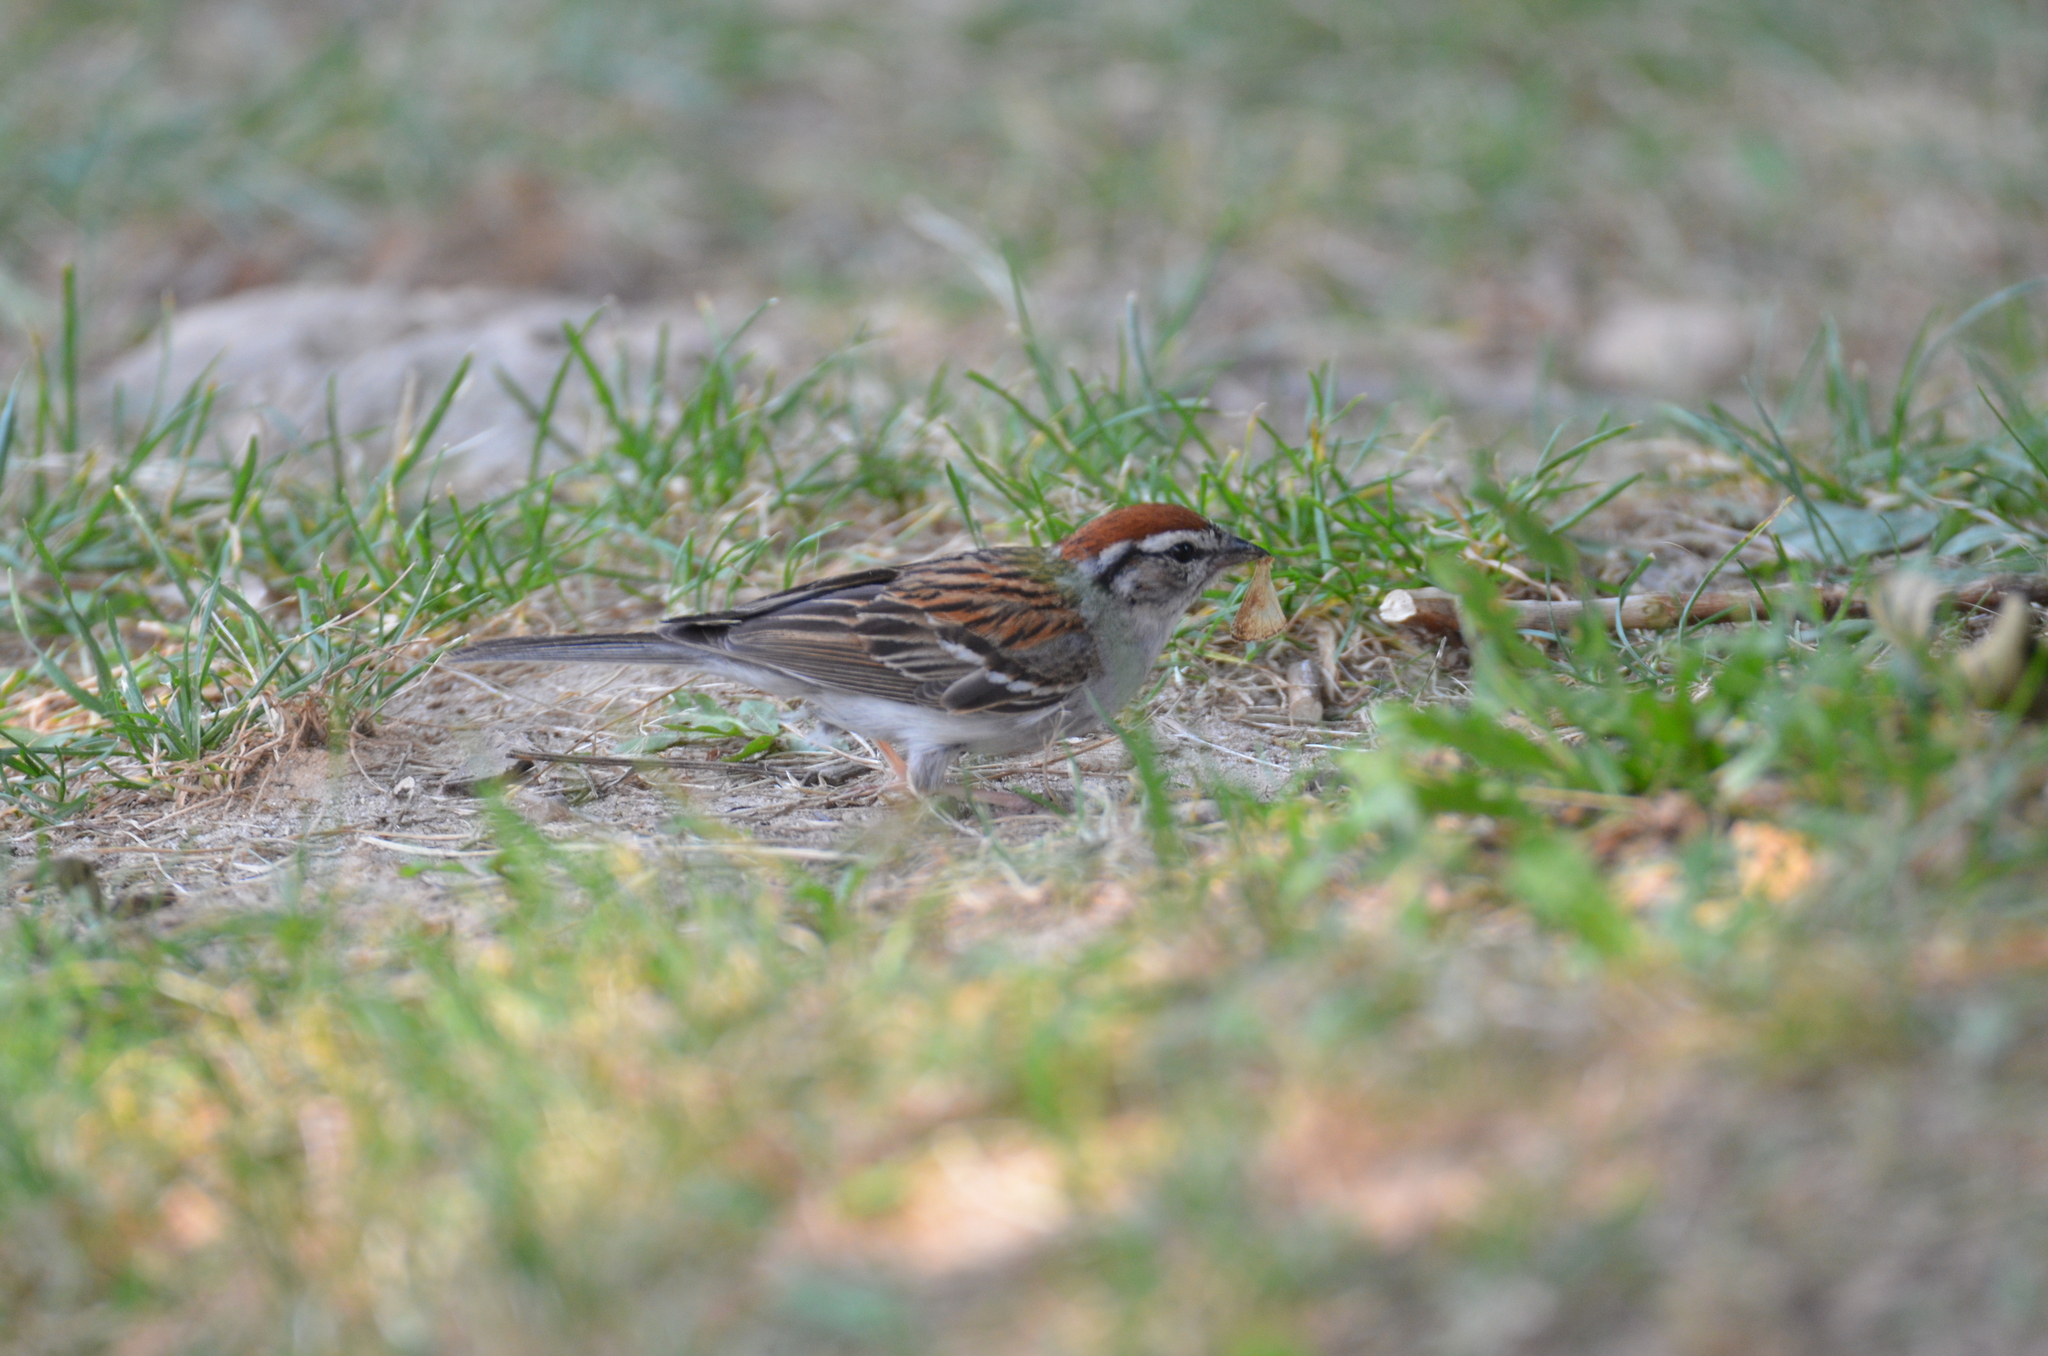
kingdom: Animalia
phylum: Chordata
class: Aves
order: Passeriformes
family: Passerellidae
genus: Spizella
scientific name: Spizella passerina
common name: Chipping sparrow
